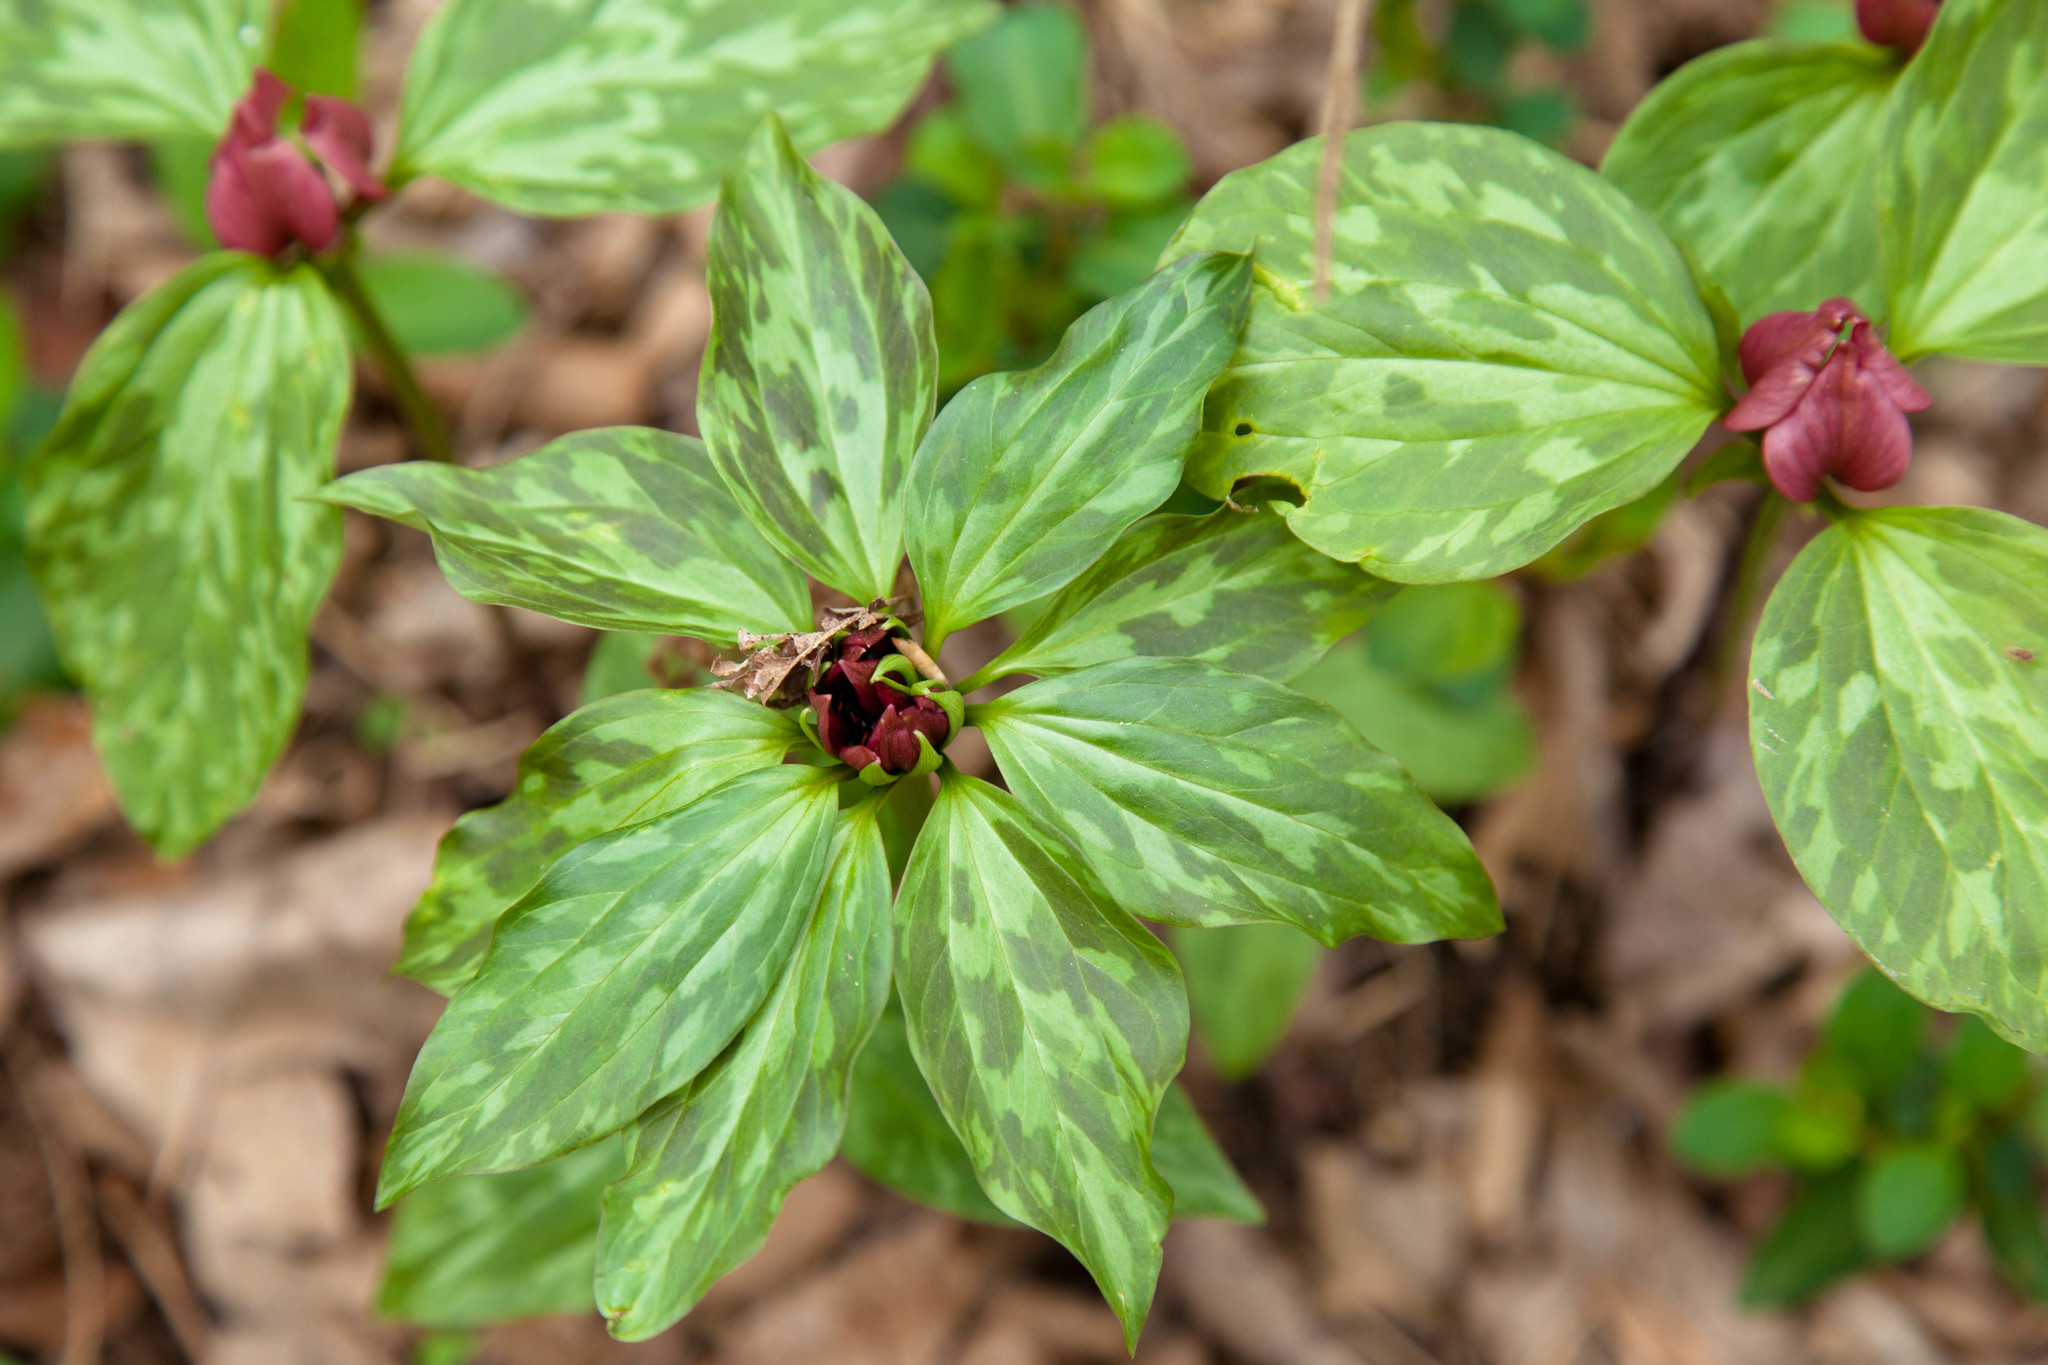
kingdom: Plantae
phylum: Tracheophyta
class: Liliopsida
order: Liliales
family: Melanthiaceae
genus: Trillium
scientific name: Trillium recurvatum
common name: Bloody butcher
